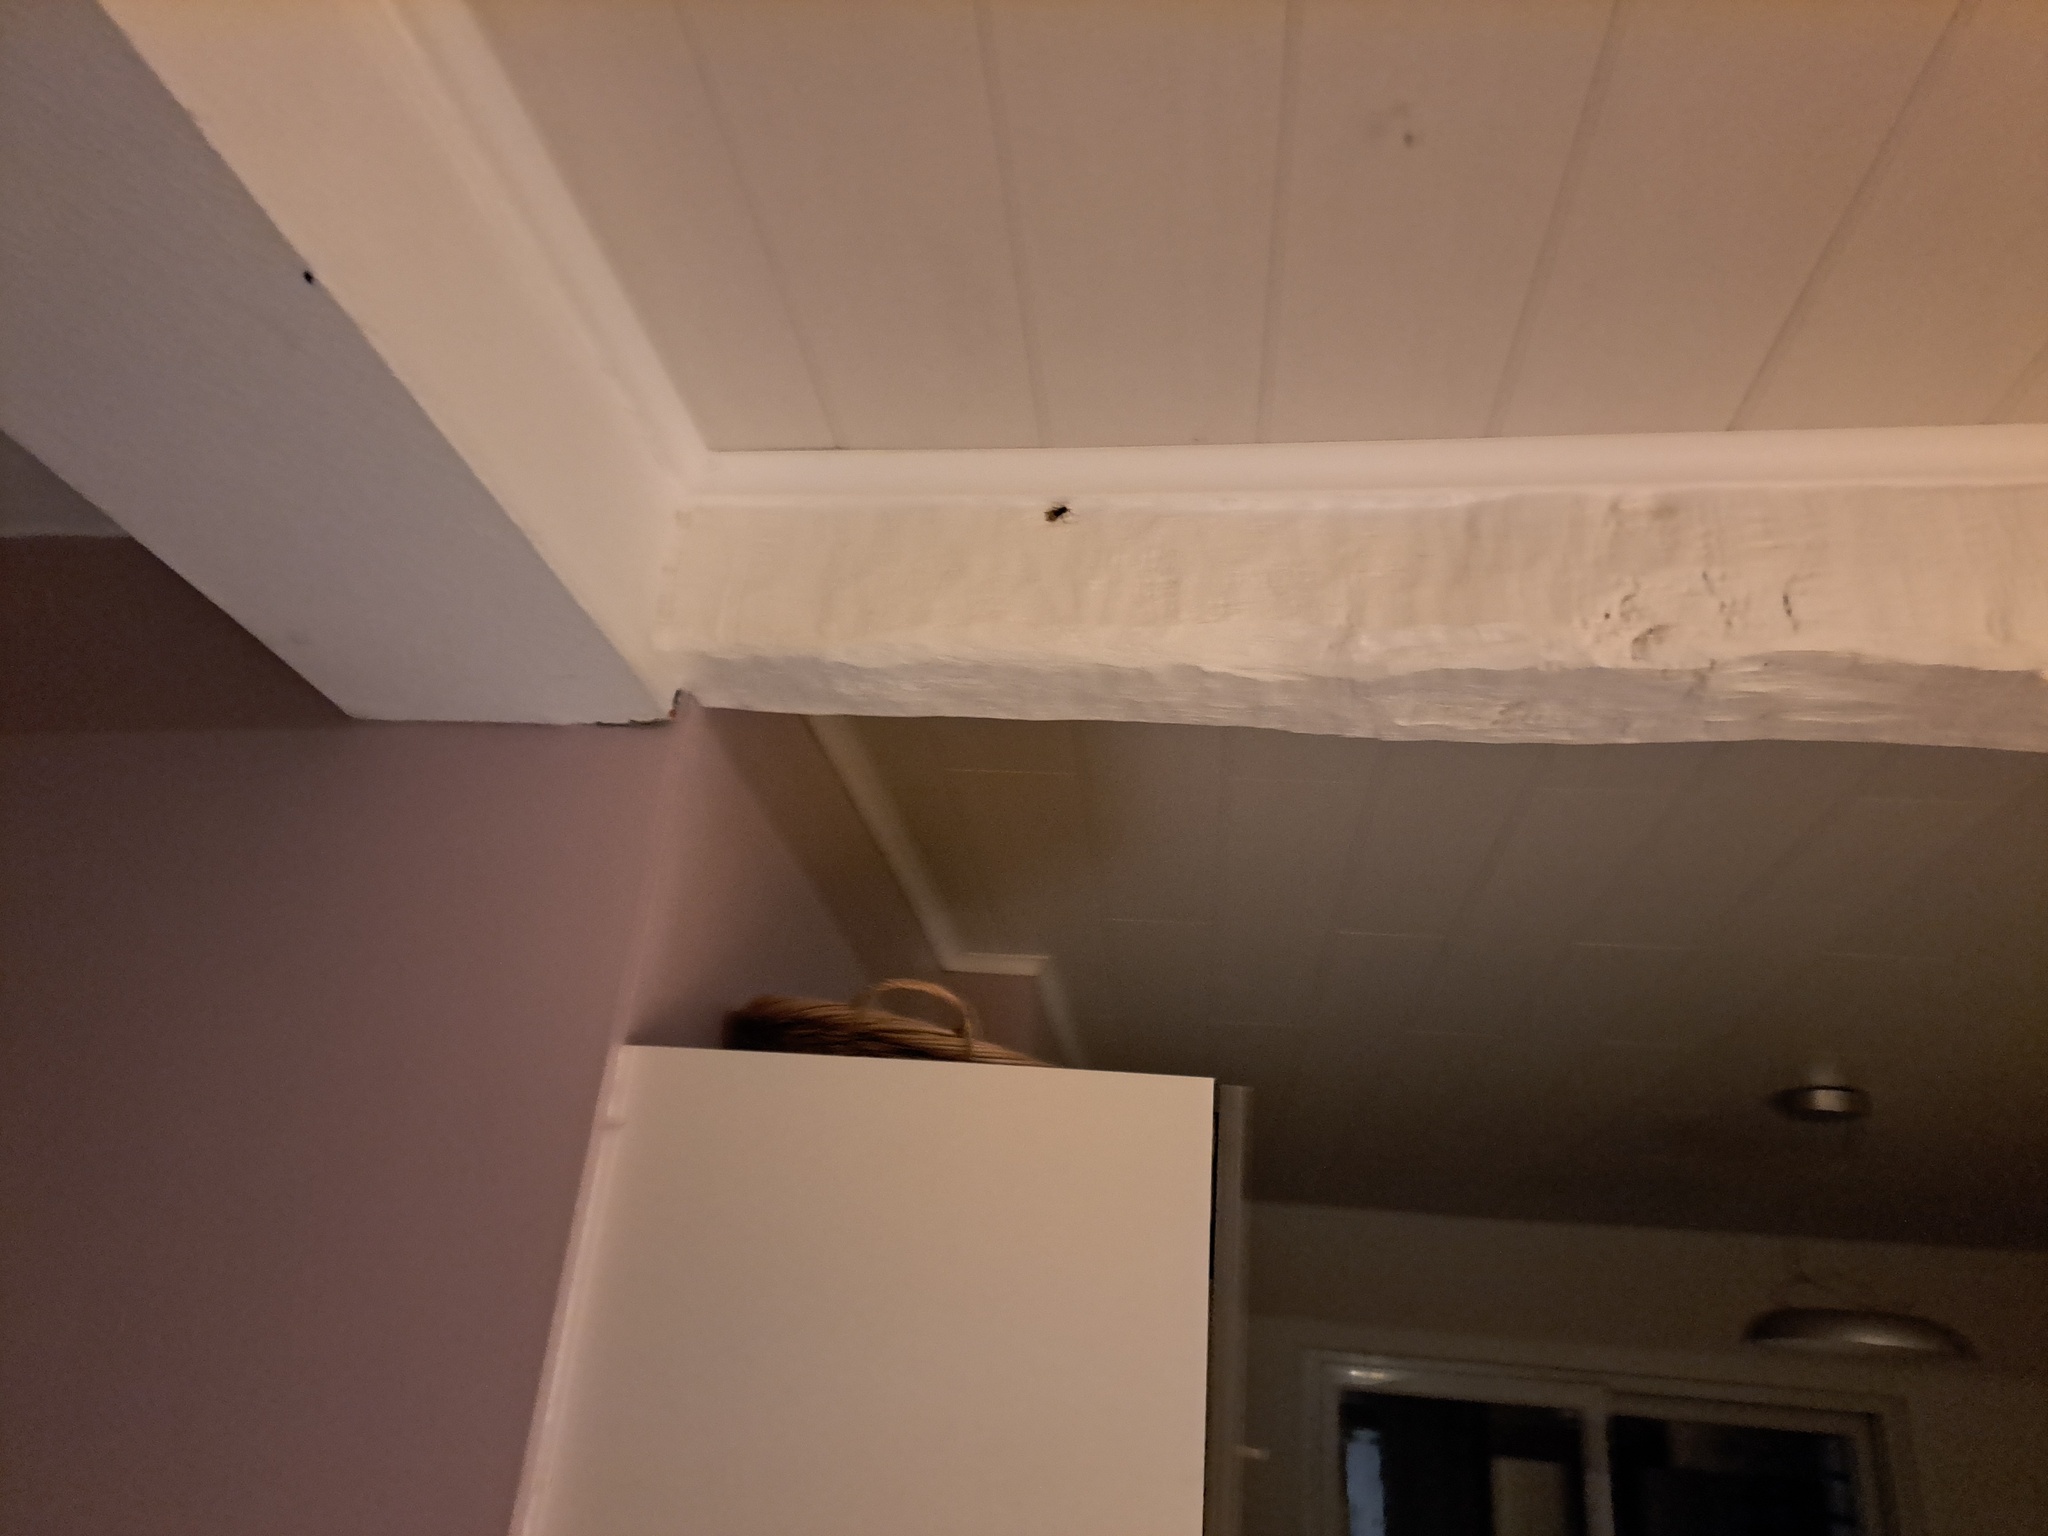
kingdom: Animalia
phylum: Arthropoda
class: Insecta
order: Hymenoptera
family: Vespidae
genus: Vespa
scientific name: Vespa crabro
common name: Hornet
